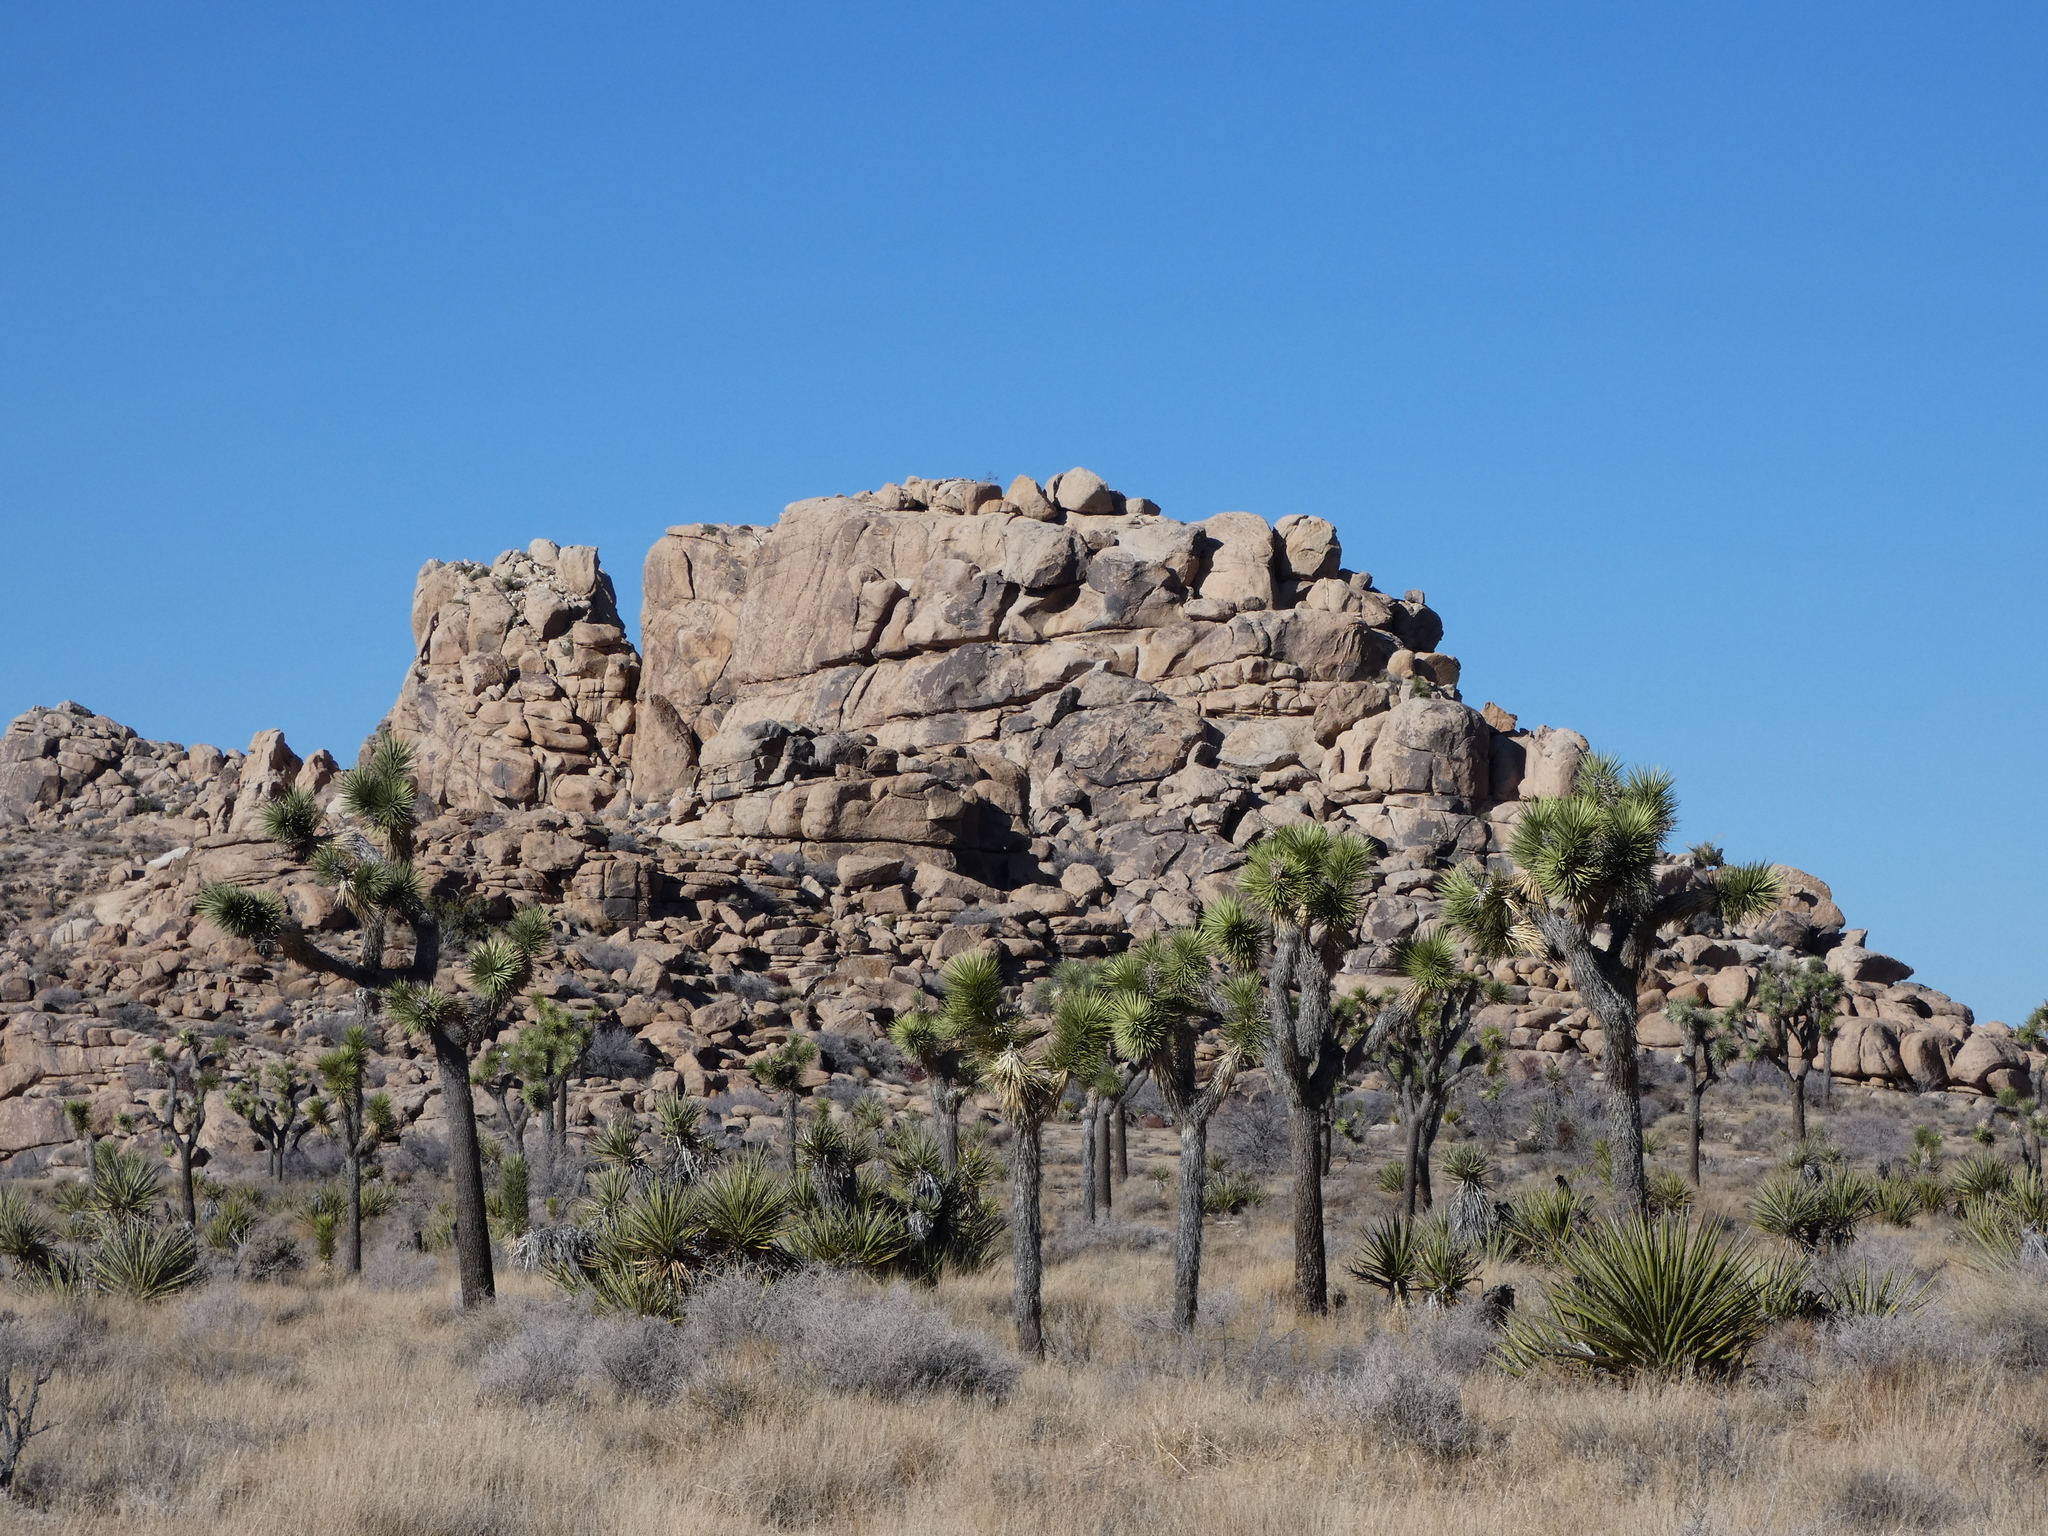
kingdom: Plantae
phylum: Tracheophyta
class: Liliopsida
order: Asparagales
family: Asparagaceae
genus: Yucca
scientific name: Yucca brevifolia
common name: Joshua tree
